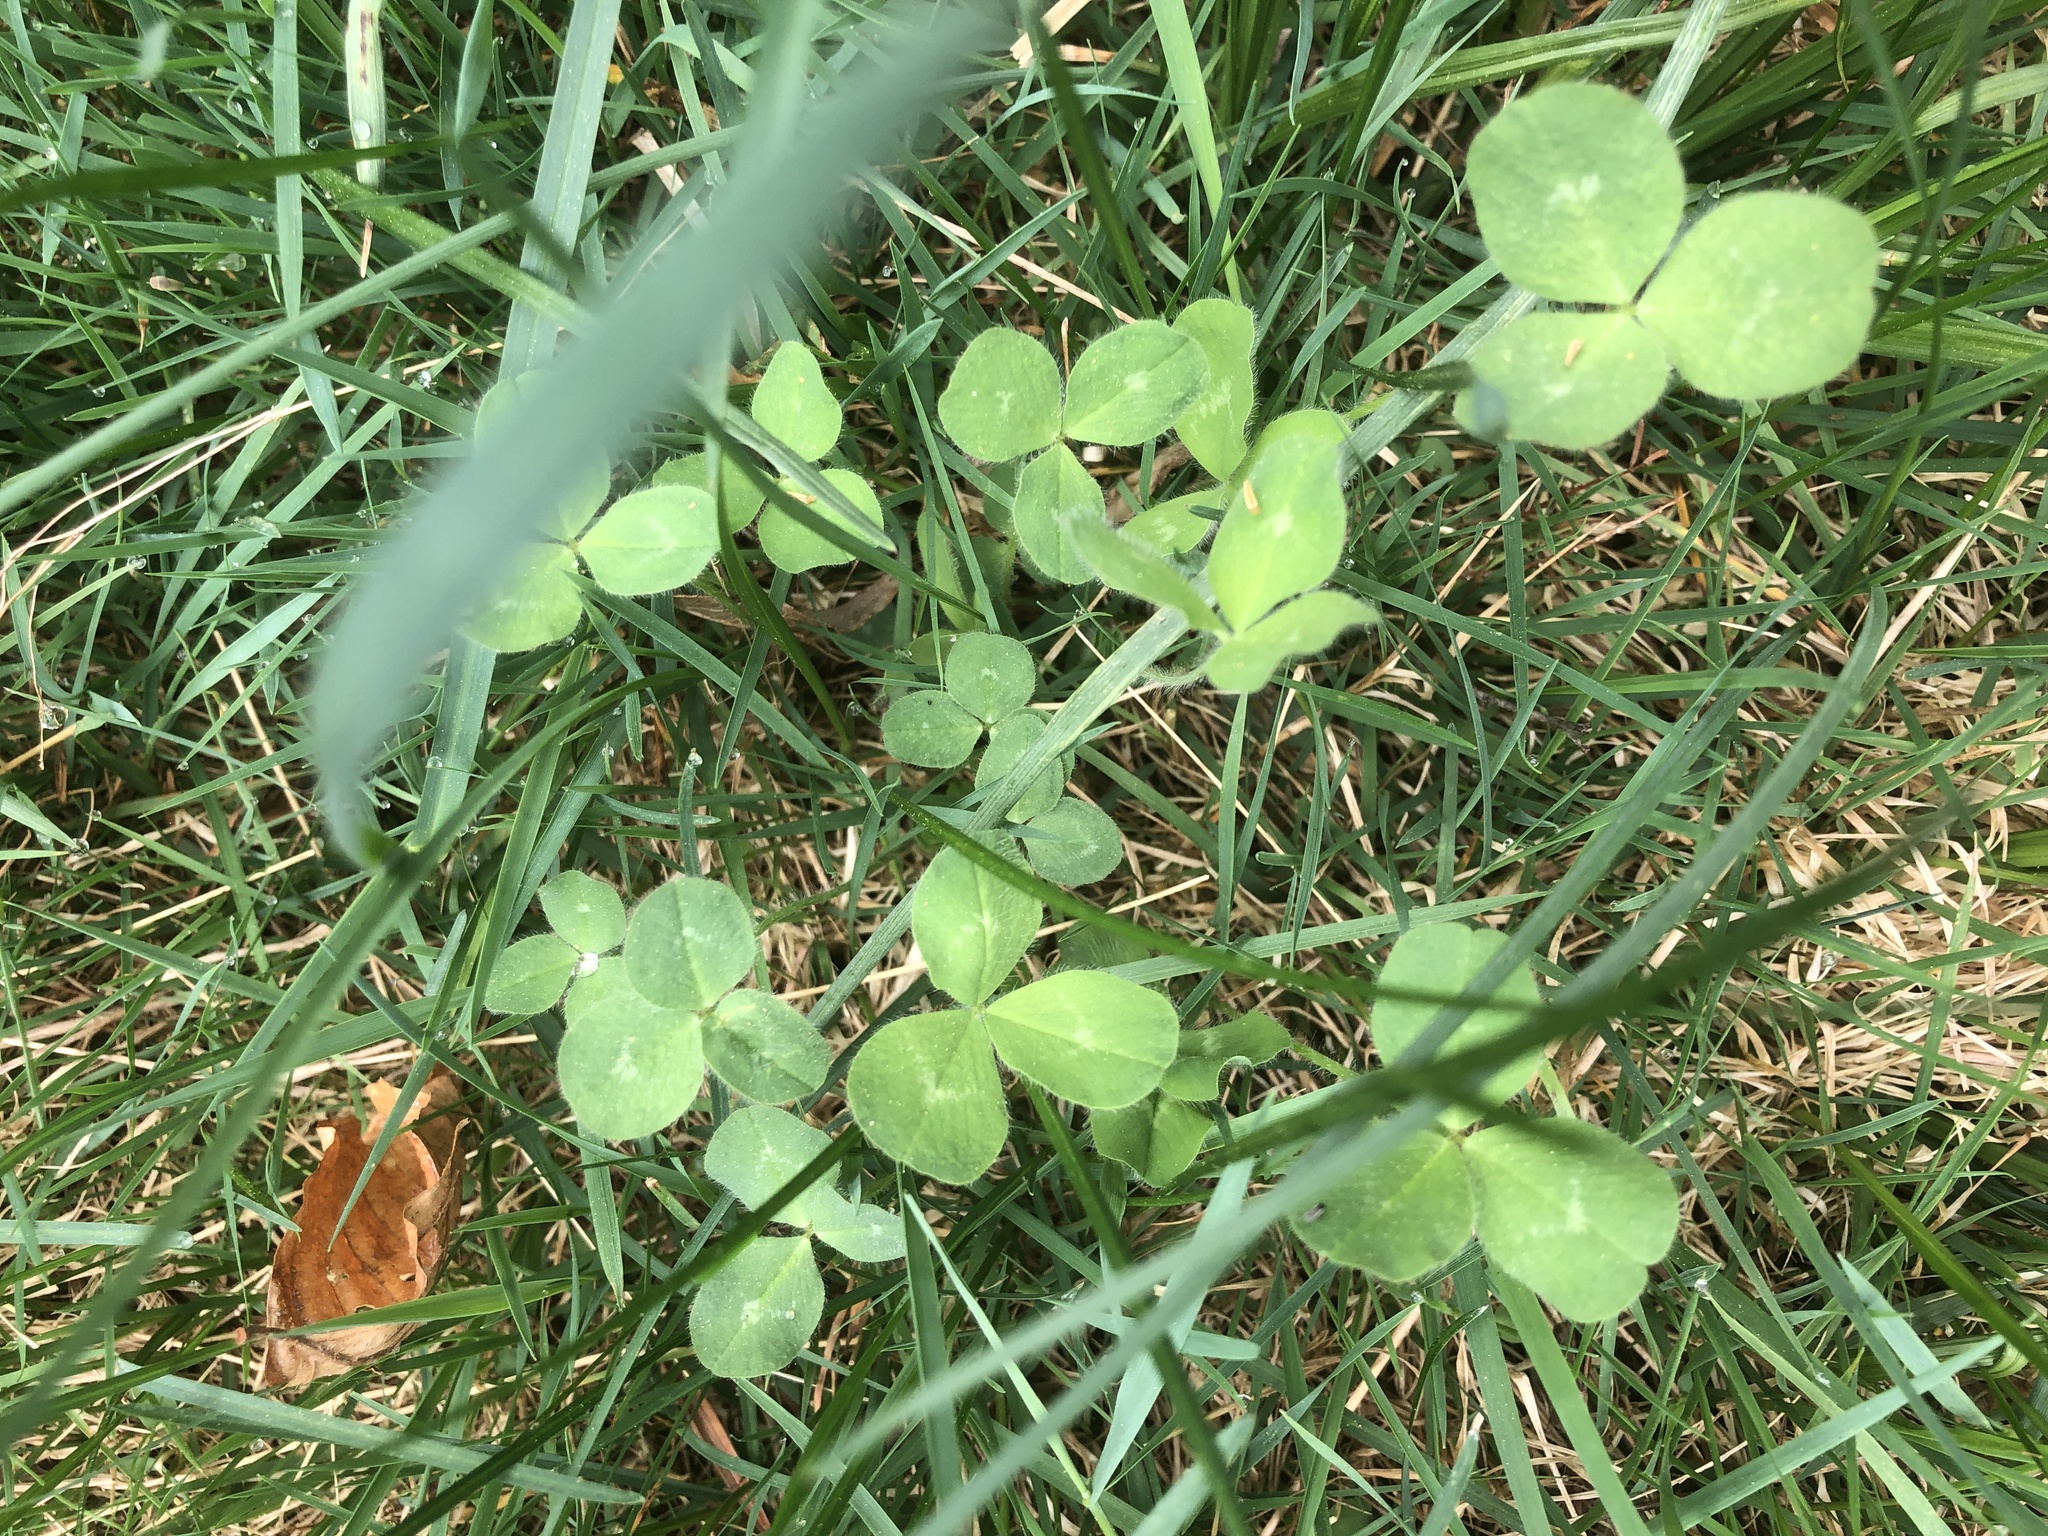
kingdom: Plantae
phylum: Tracheophyta
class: Magnoliopsida
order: Fabales
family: Fabaceae
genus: Trifolium
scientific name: Trifolium pratense
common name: Red clover
